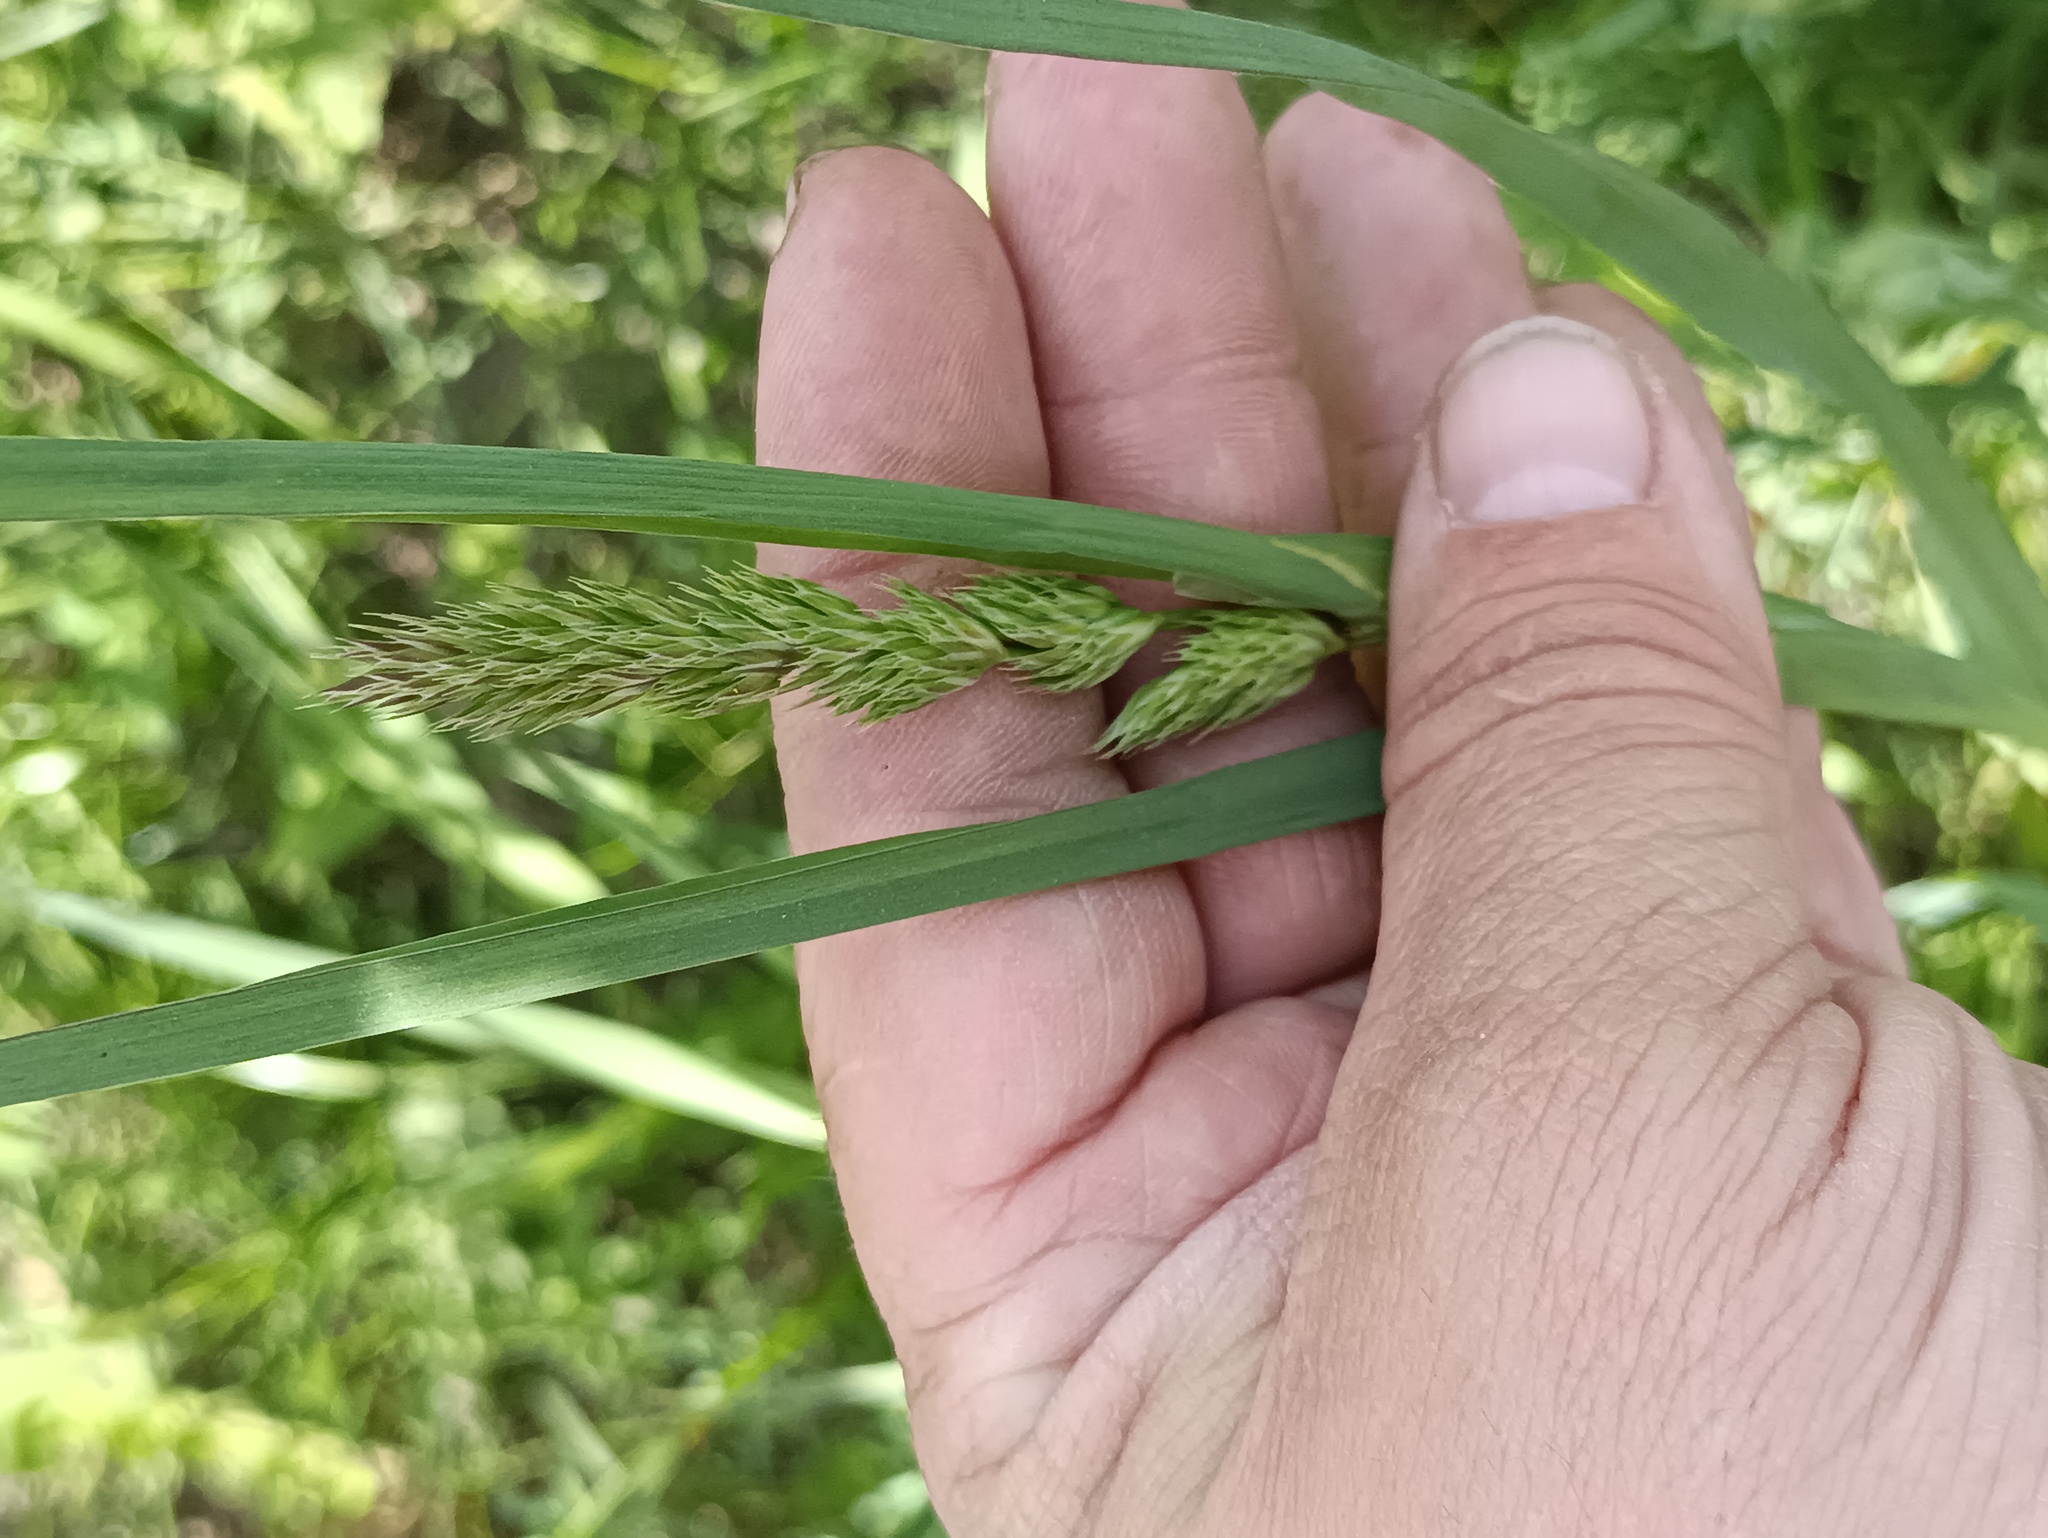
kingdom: Plantae
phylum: Tracheophyta
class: Liliopsida
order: Poales
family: Poaceae
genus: Dactylis
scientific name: Dactylis glomerata
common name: Orchardgrass
